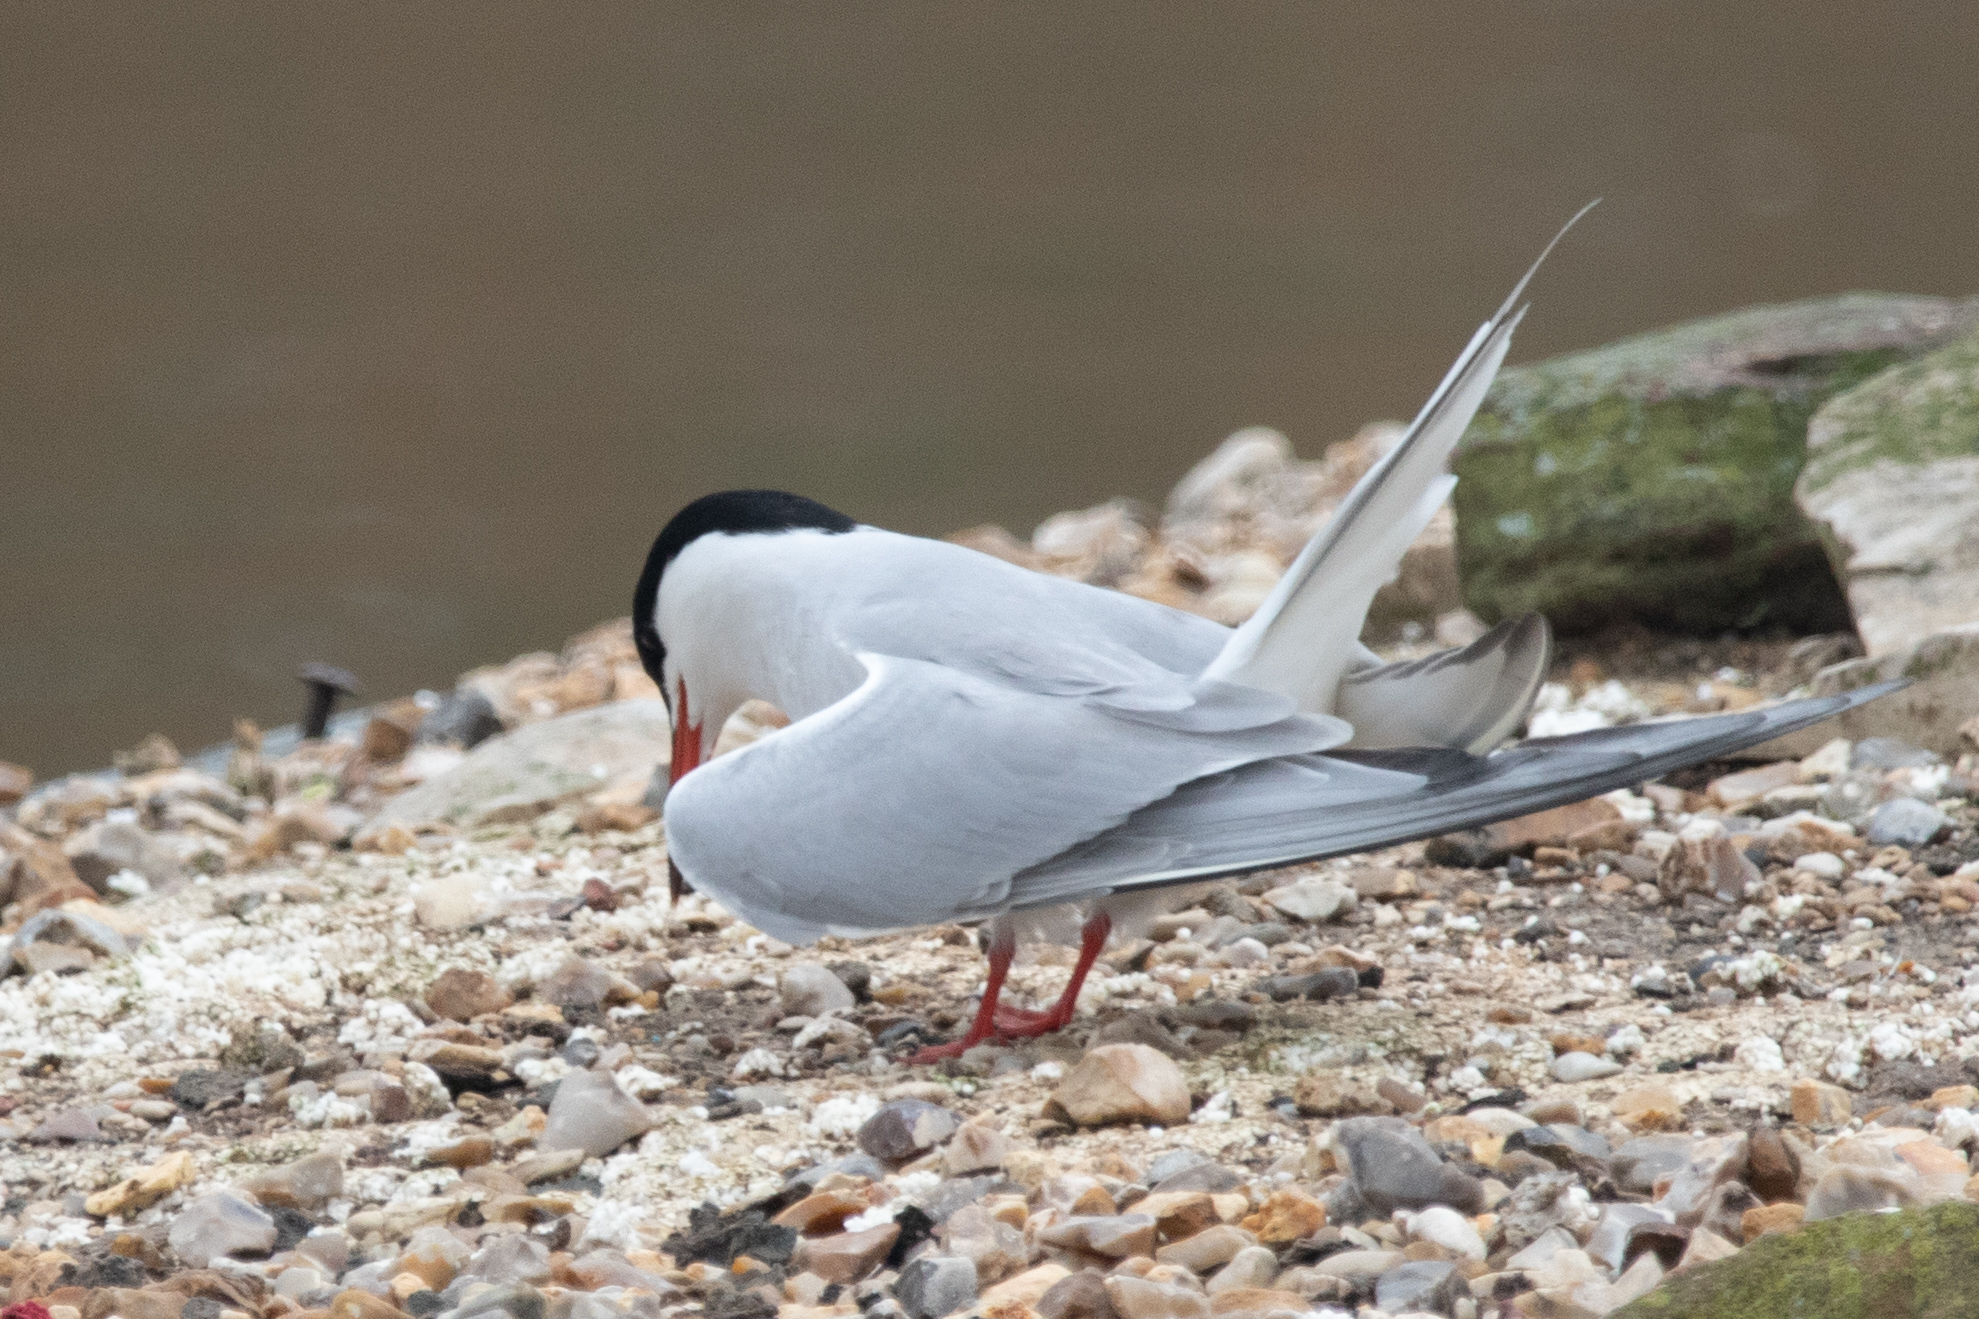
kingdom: Animalia
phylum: Chordata
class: Aves
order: Charadriiformes
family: Laridae
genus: Sterna
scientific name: Sterna hirundo
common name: Common tern
